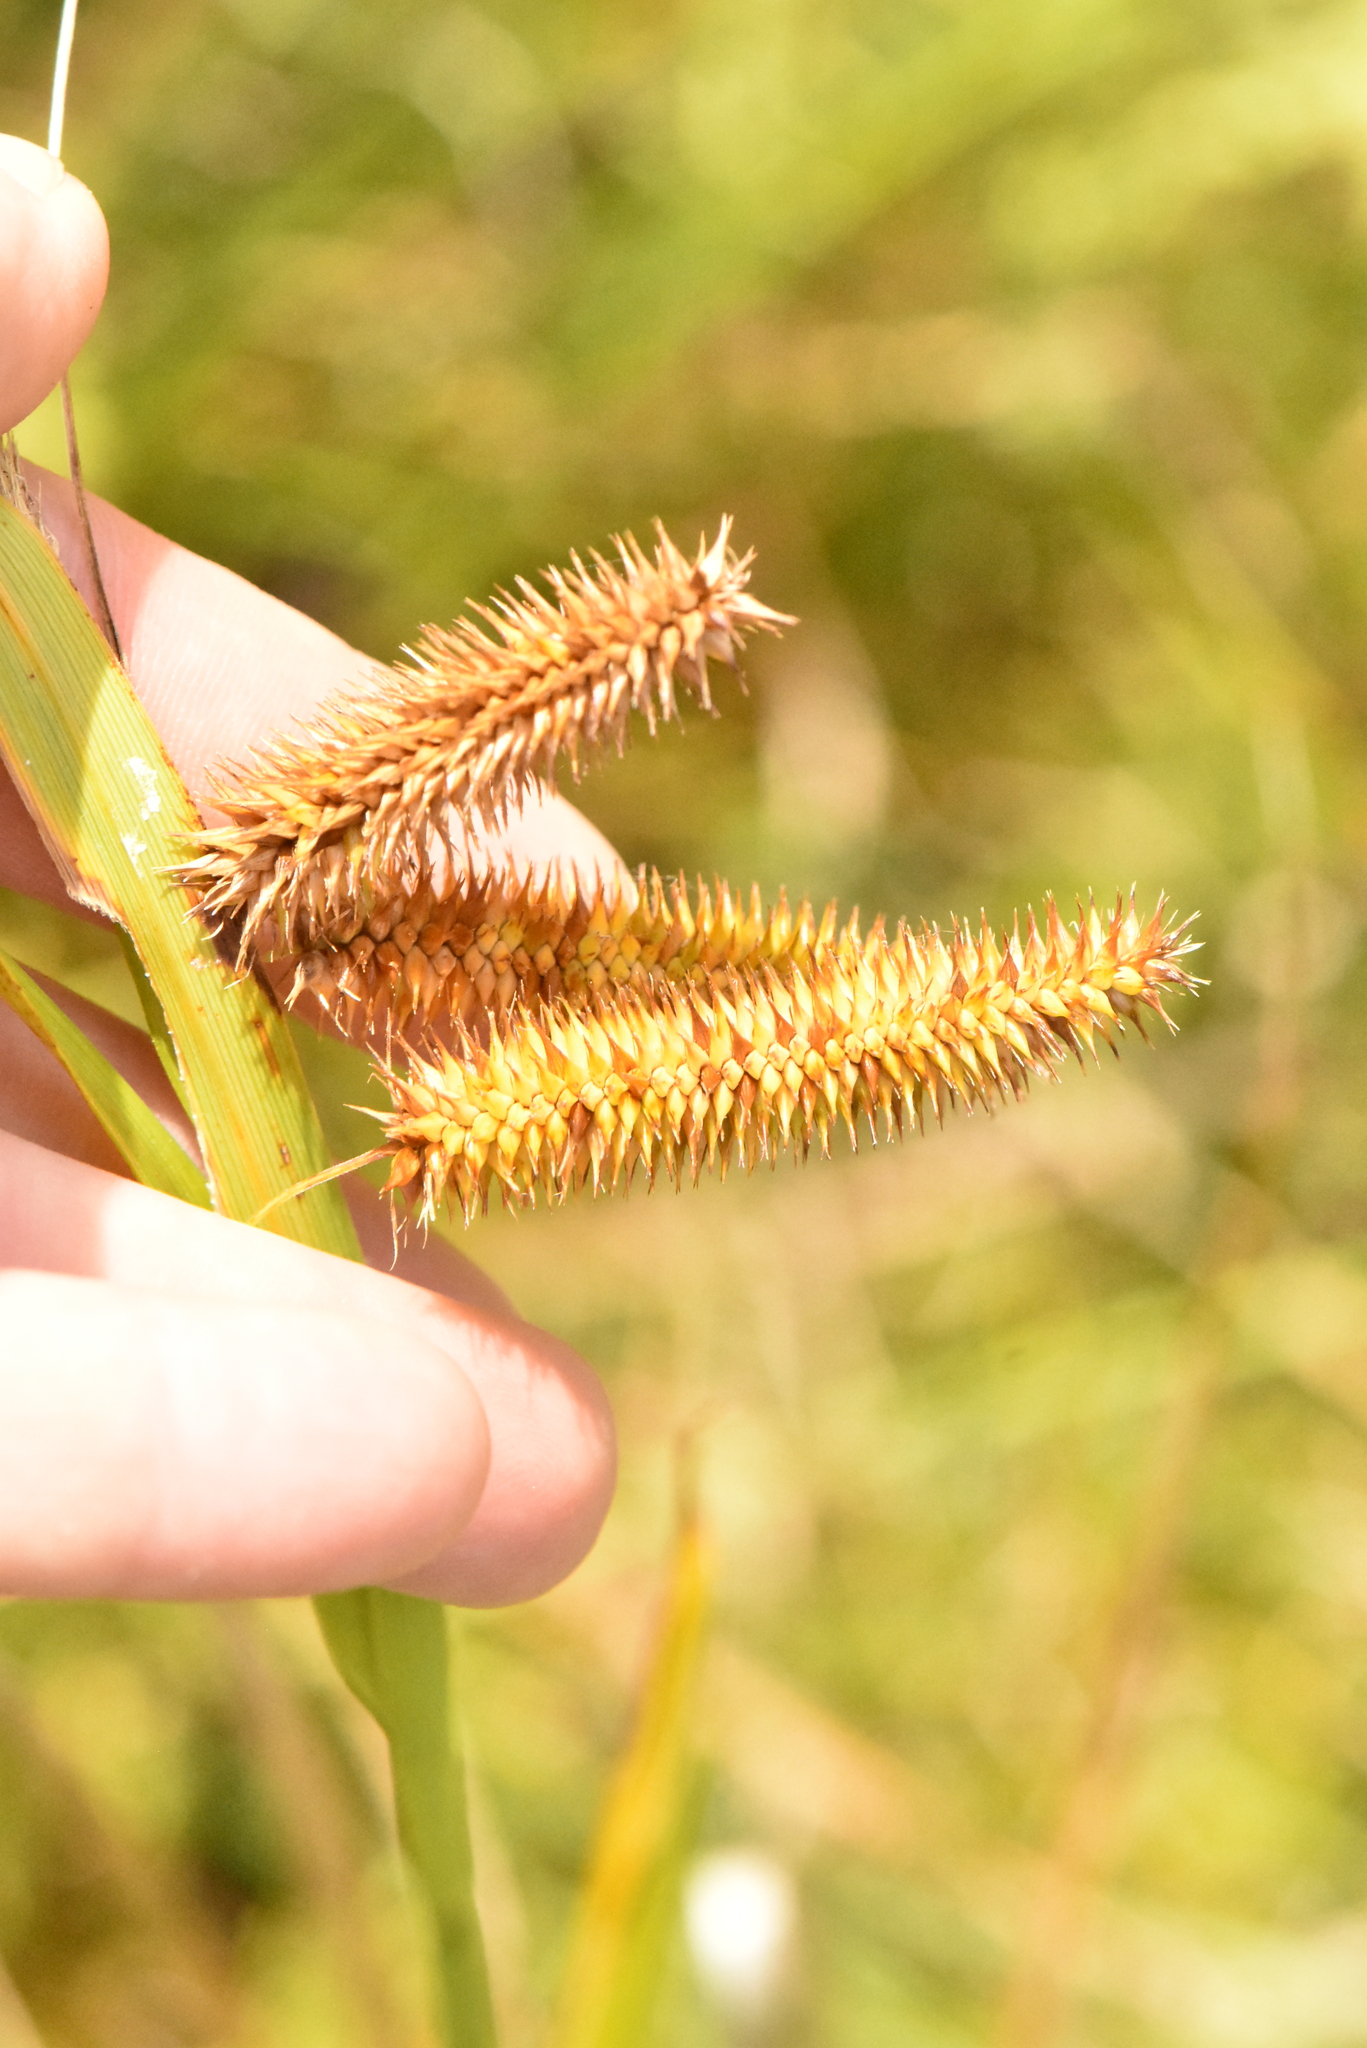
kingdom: Plantae
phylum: Tracheophyta
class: Liliopsida
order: Poales
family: Cyperaceae
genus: Carex
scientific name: Carex pseudocyperus
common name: Cyperus sedge
